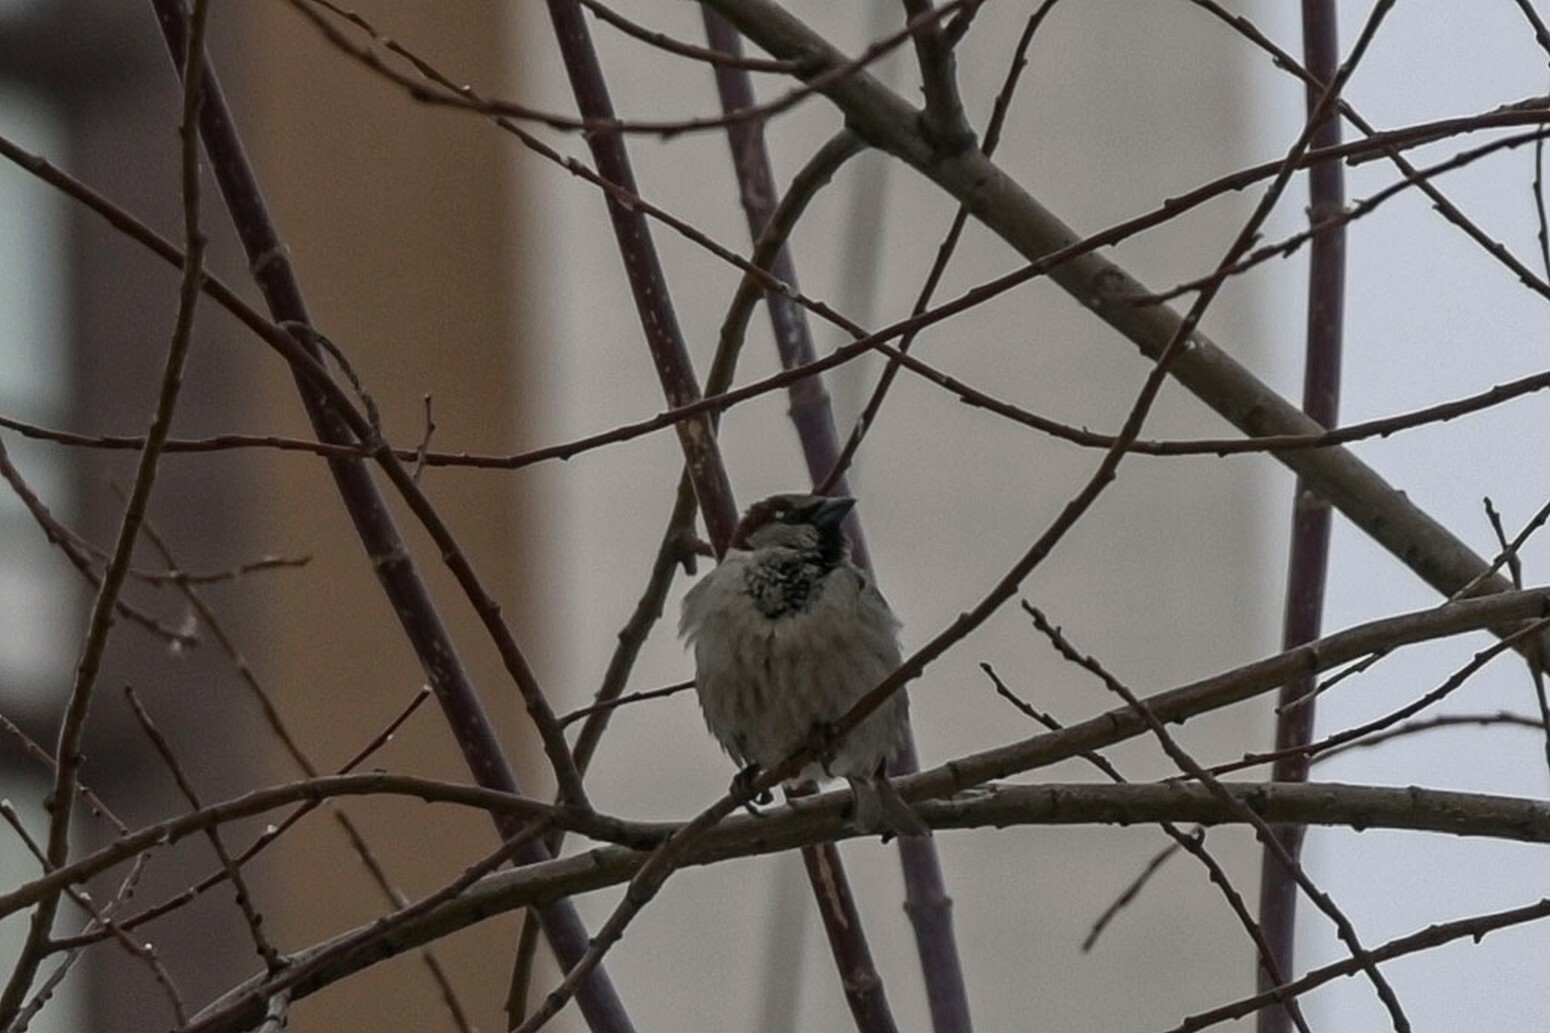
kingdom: Animalia
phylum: Chordata
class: Aves
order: Passeriformes
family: Passeridae
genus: Passer
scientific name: Passer domesticus
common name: House sparrow
